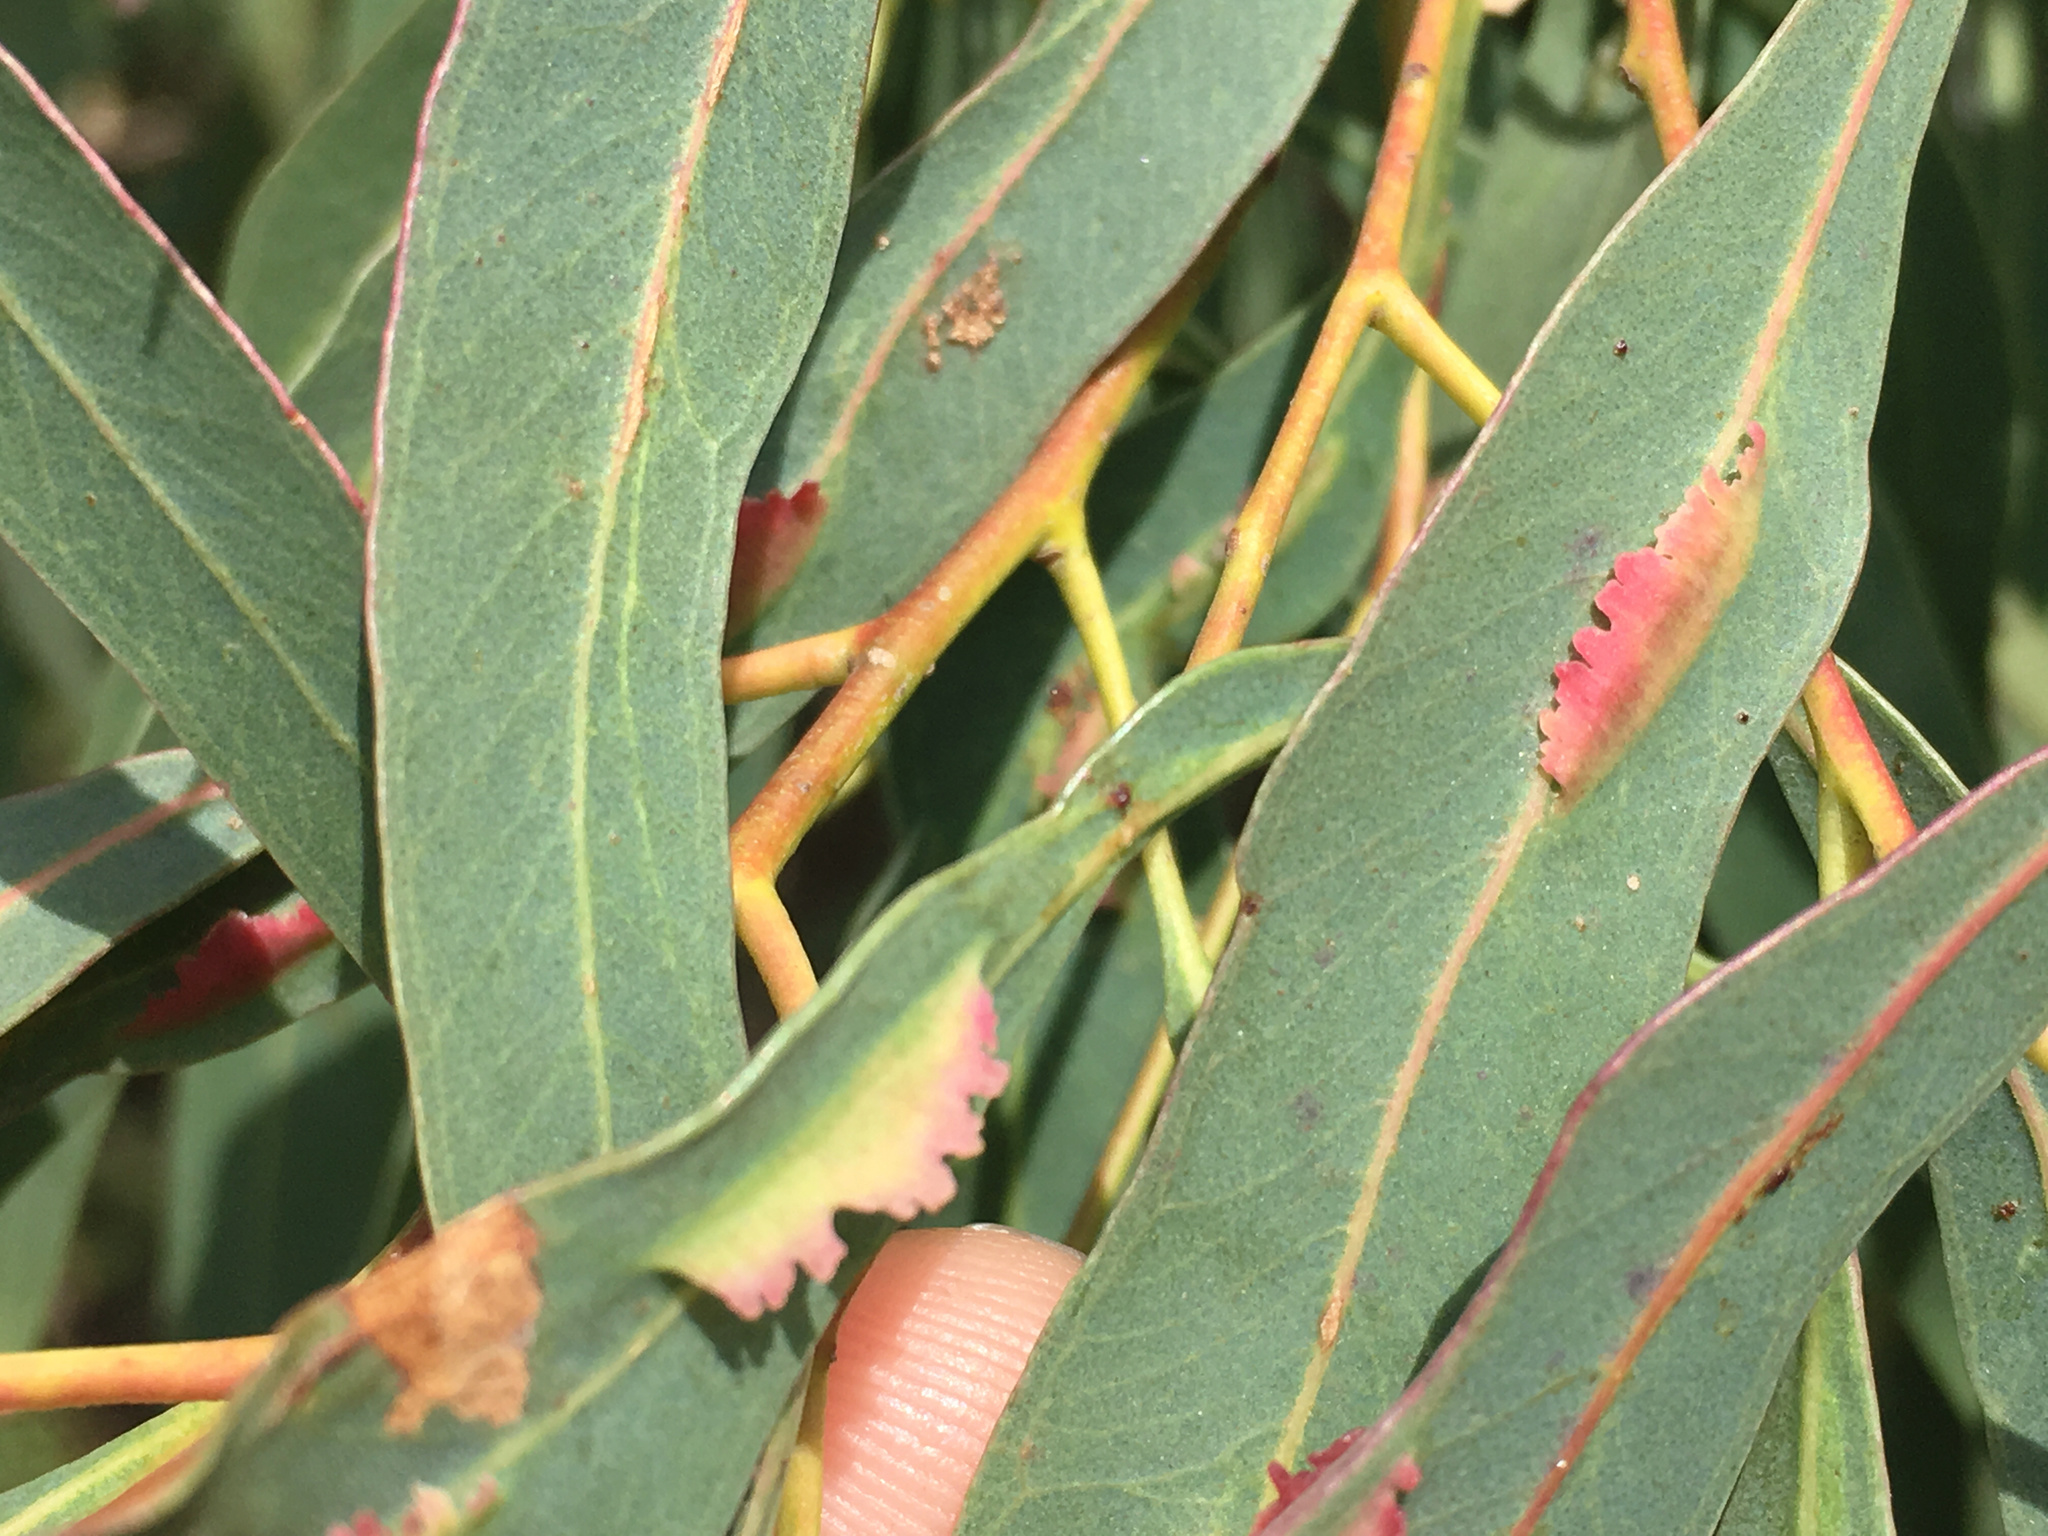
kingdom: Animalia
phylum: Arthropoda
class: Insecta
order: Hymenoptera
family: Pteromalidae
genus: Nambouria
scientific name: Nambouria xanthops
